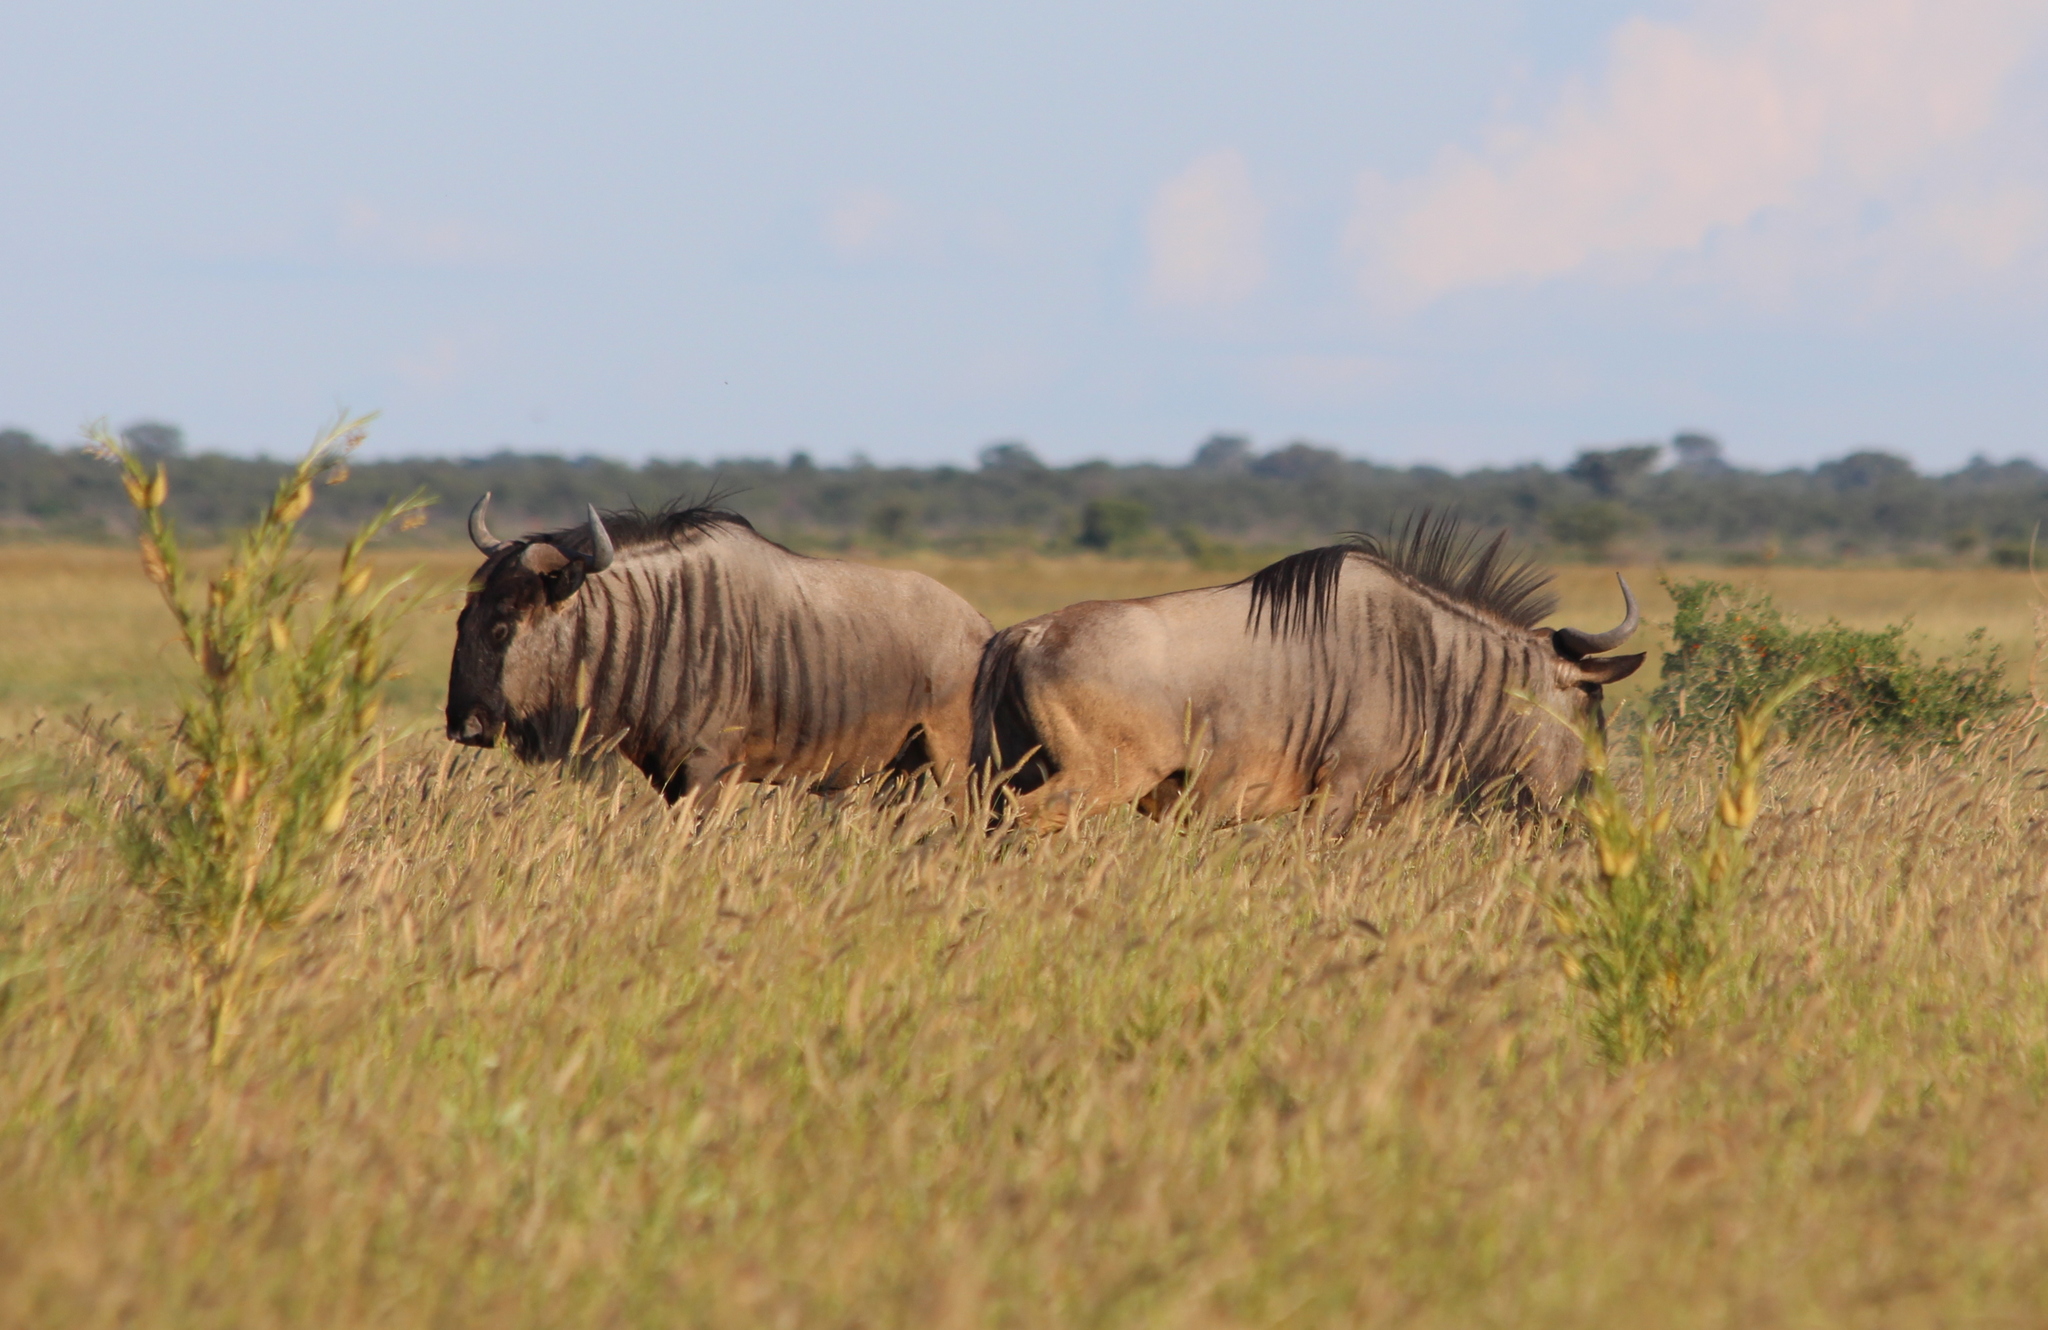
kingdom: Animalia
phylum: Chordata
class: Mammalia
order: Artiodactyla
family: Bovidae
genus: Connochaetes
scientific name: Connochaetes taurinus
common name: Blue wildebeest
